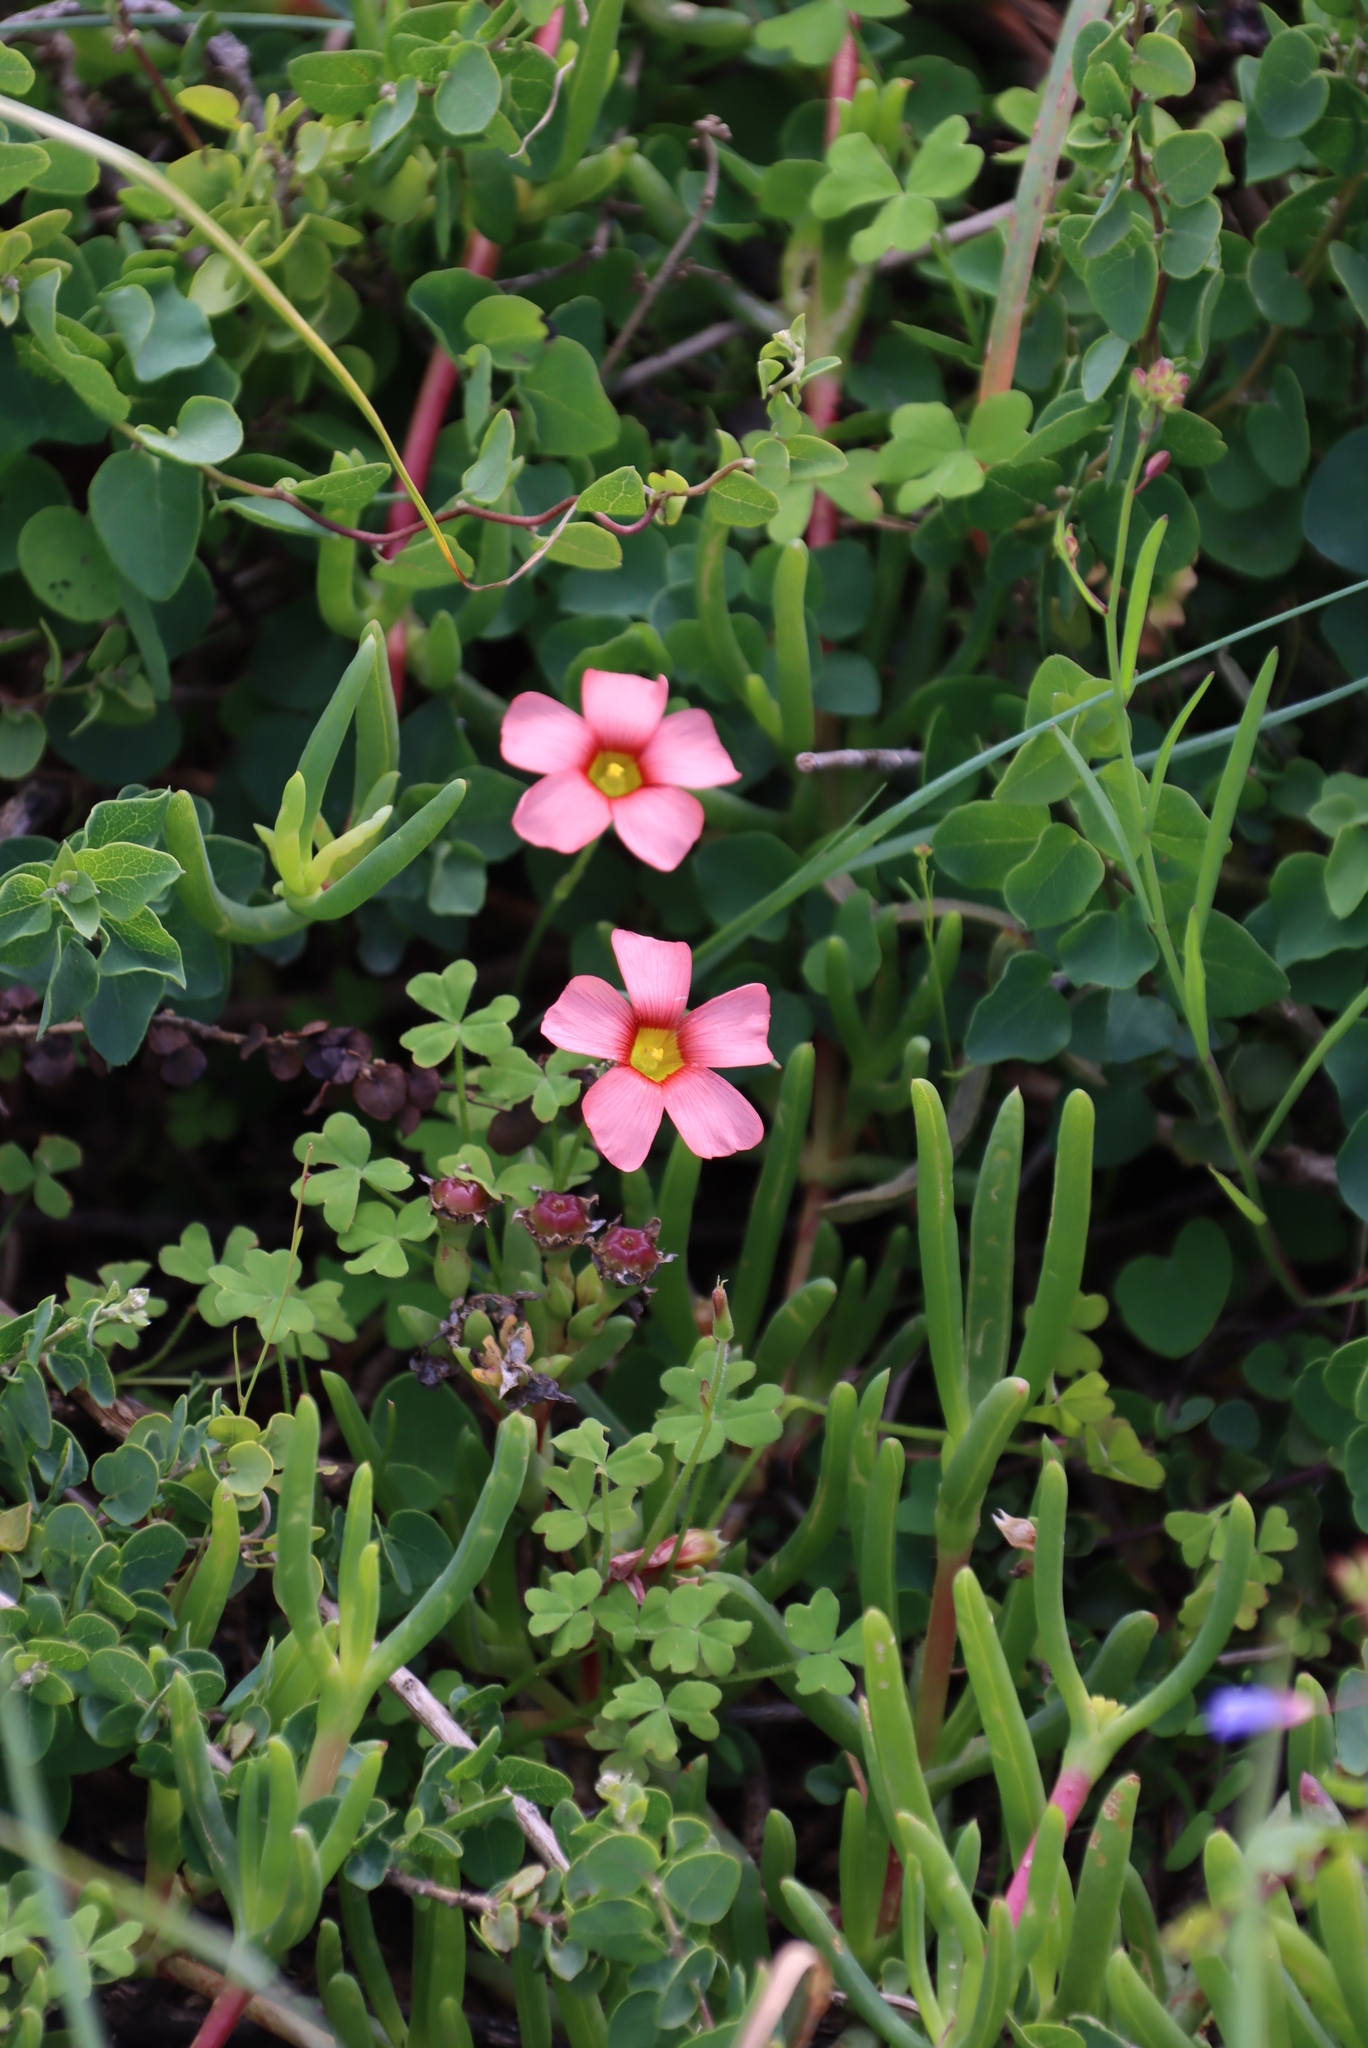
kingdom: Plantae
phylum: Tracheophyta
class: Magnoliopsida
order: Oxalidales
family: Oxalidaceae
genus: Oxalis
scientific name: Oxalis obtusa
